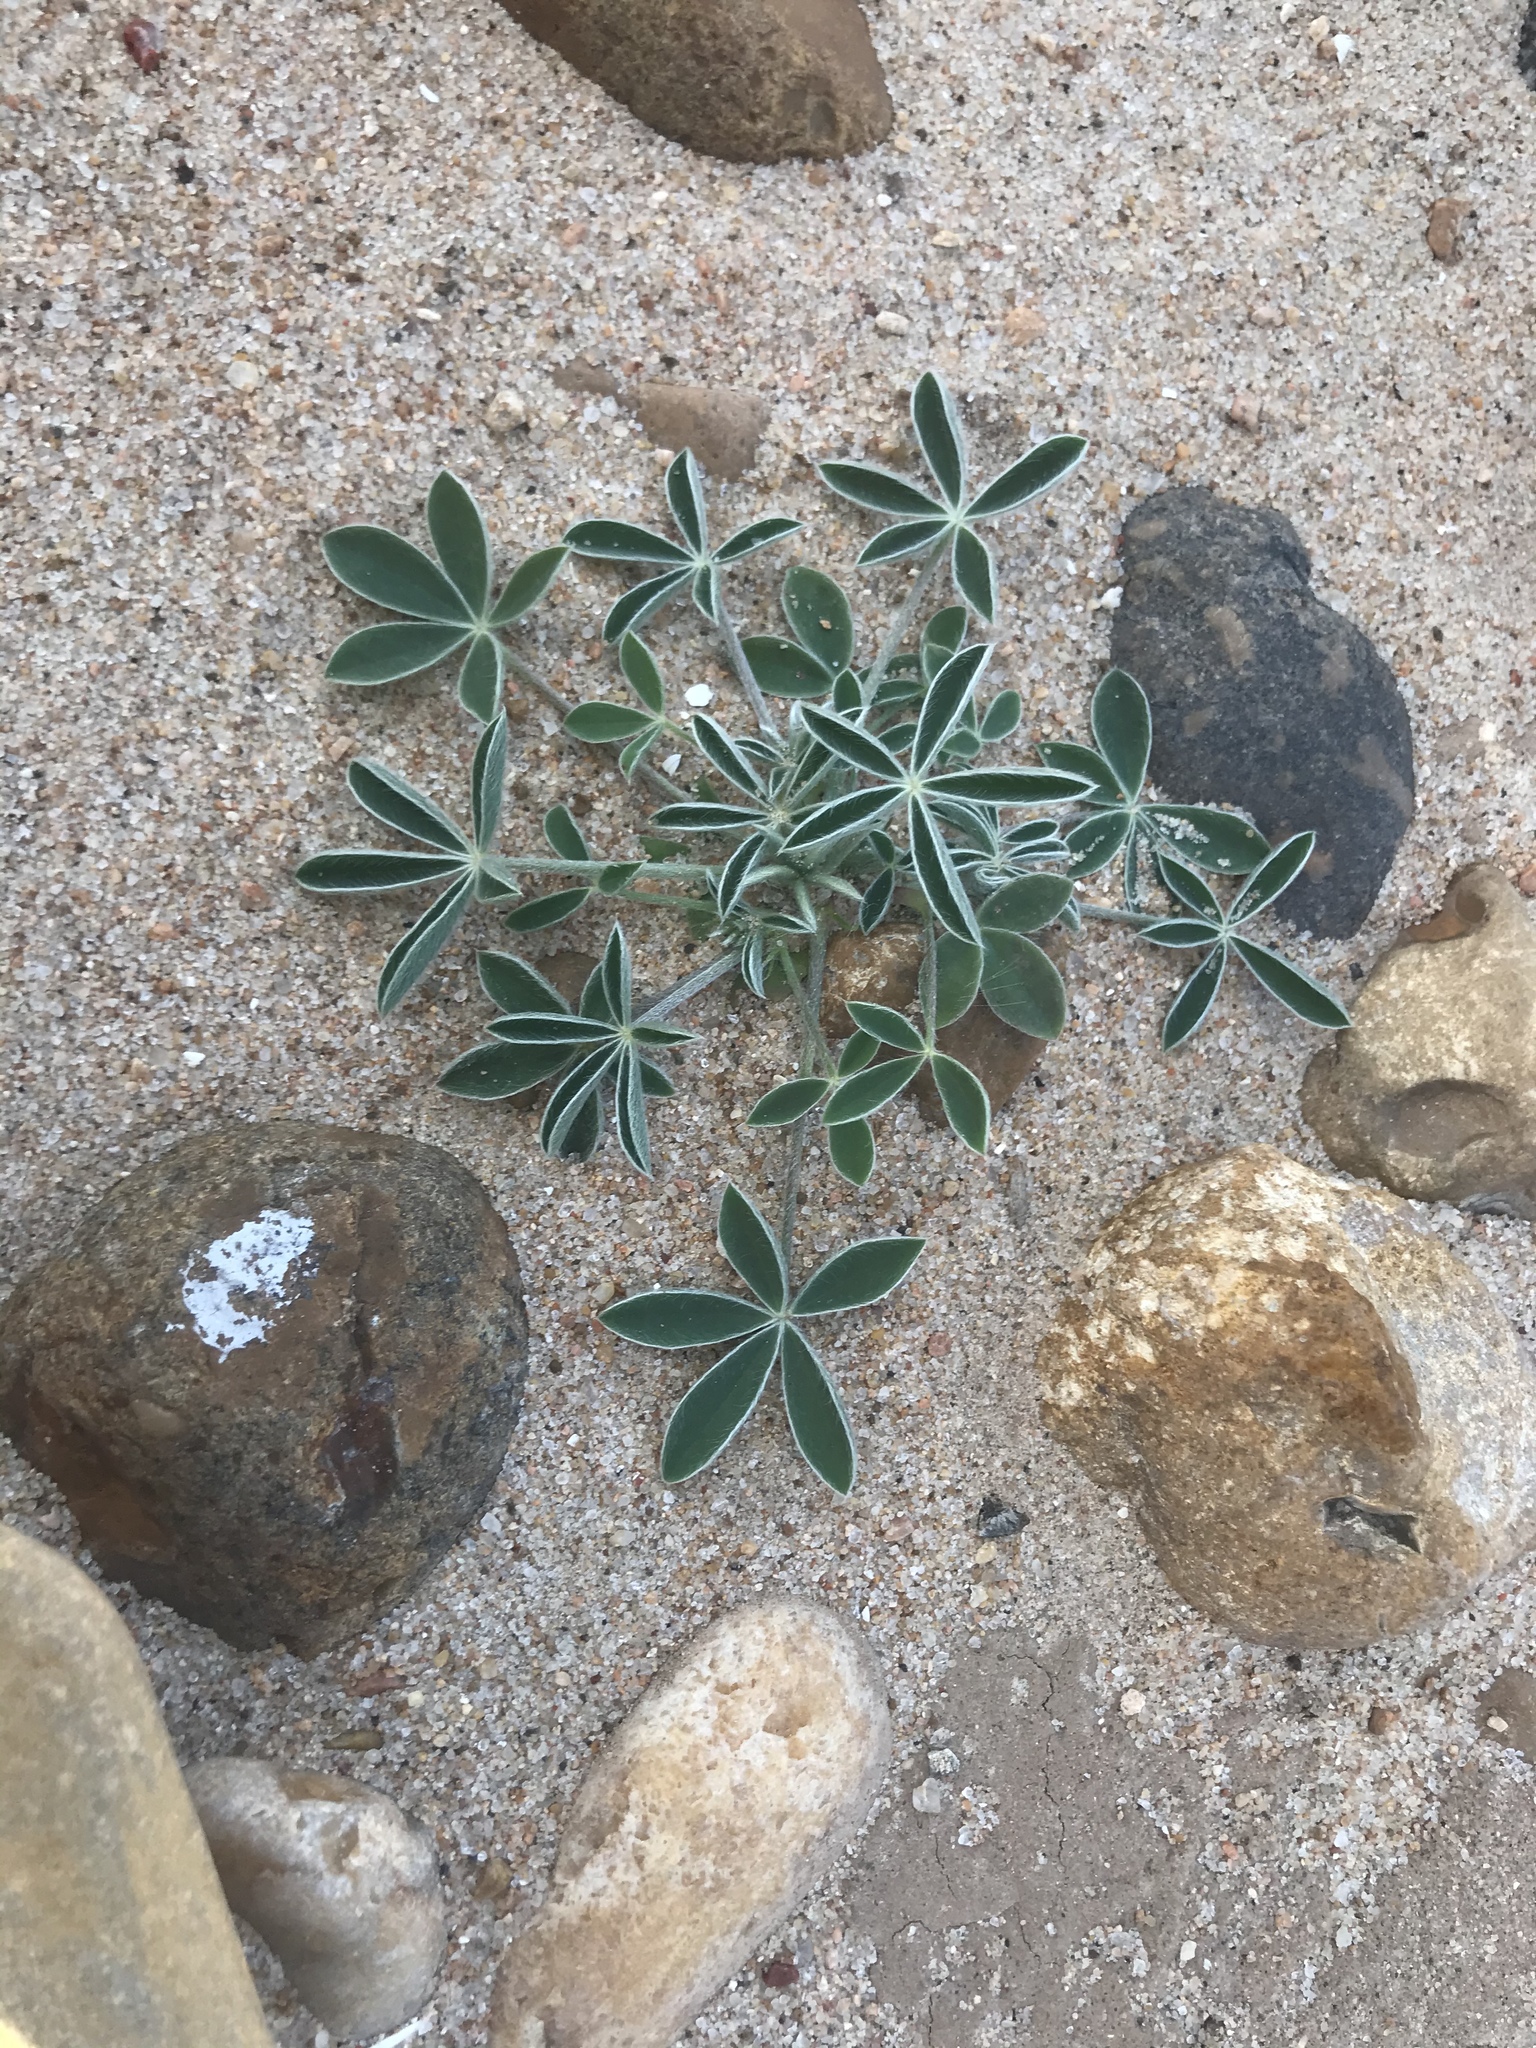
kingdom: Plantae
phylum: Tracheophyta
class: Magnoliopsida
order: Fabales
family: Fabaceae
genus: Lupinus
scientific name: Lupinus texensis
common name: Texas bluebonnet
